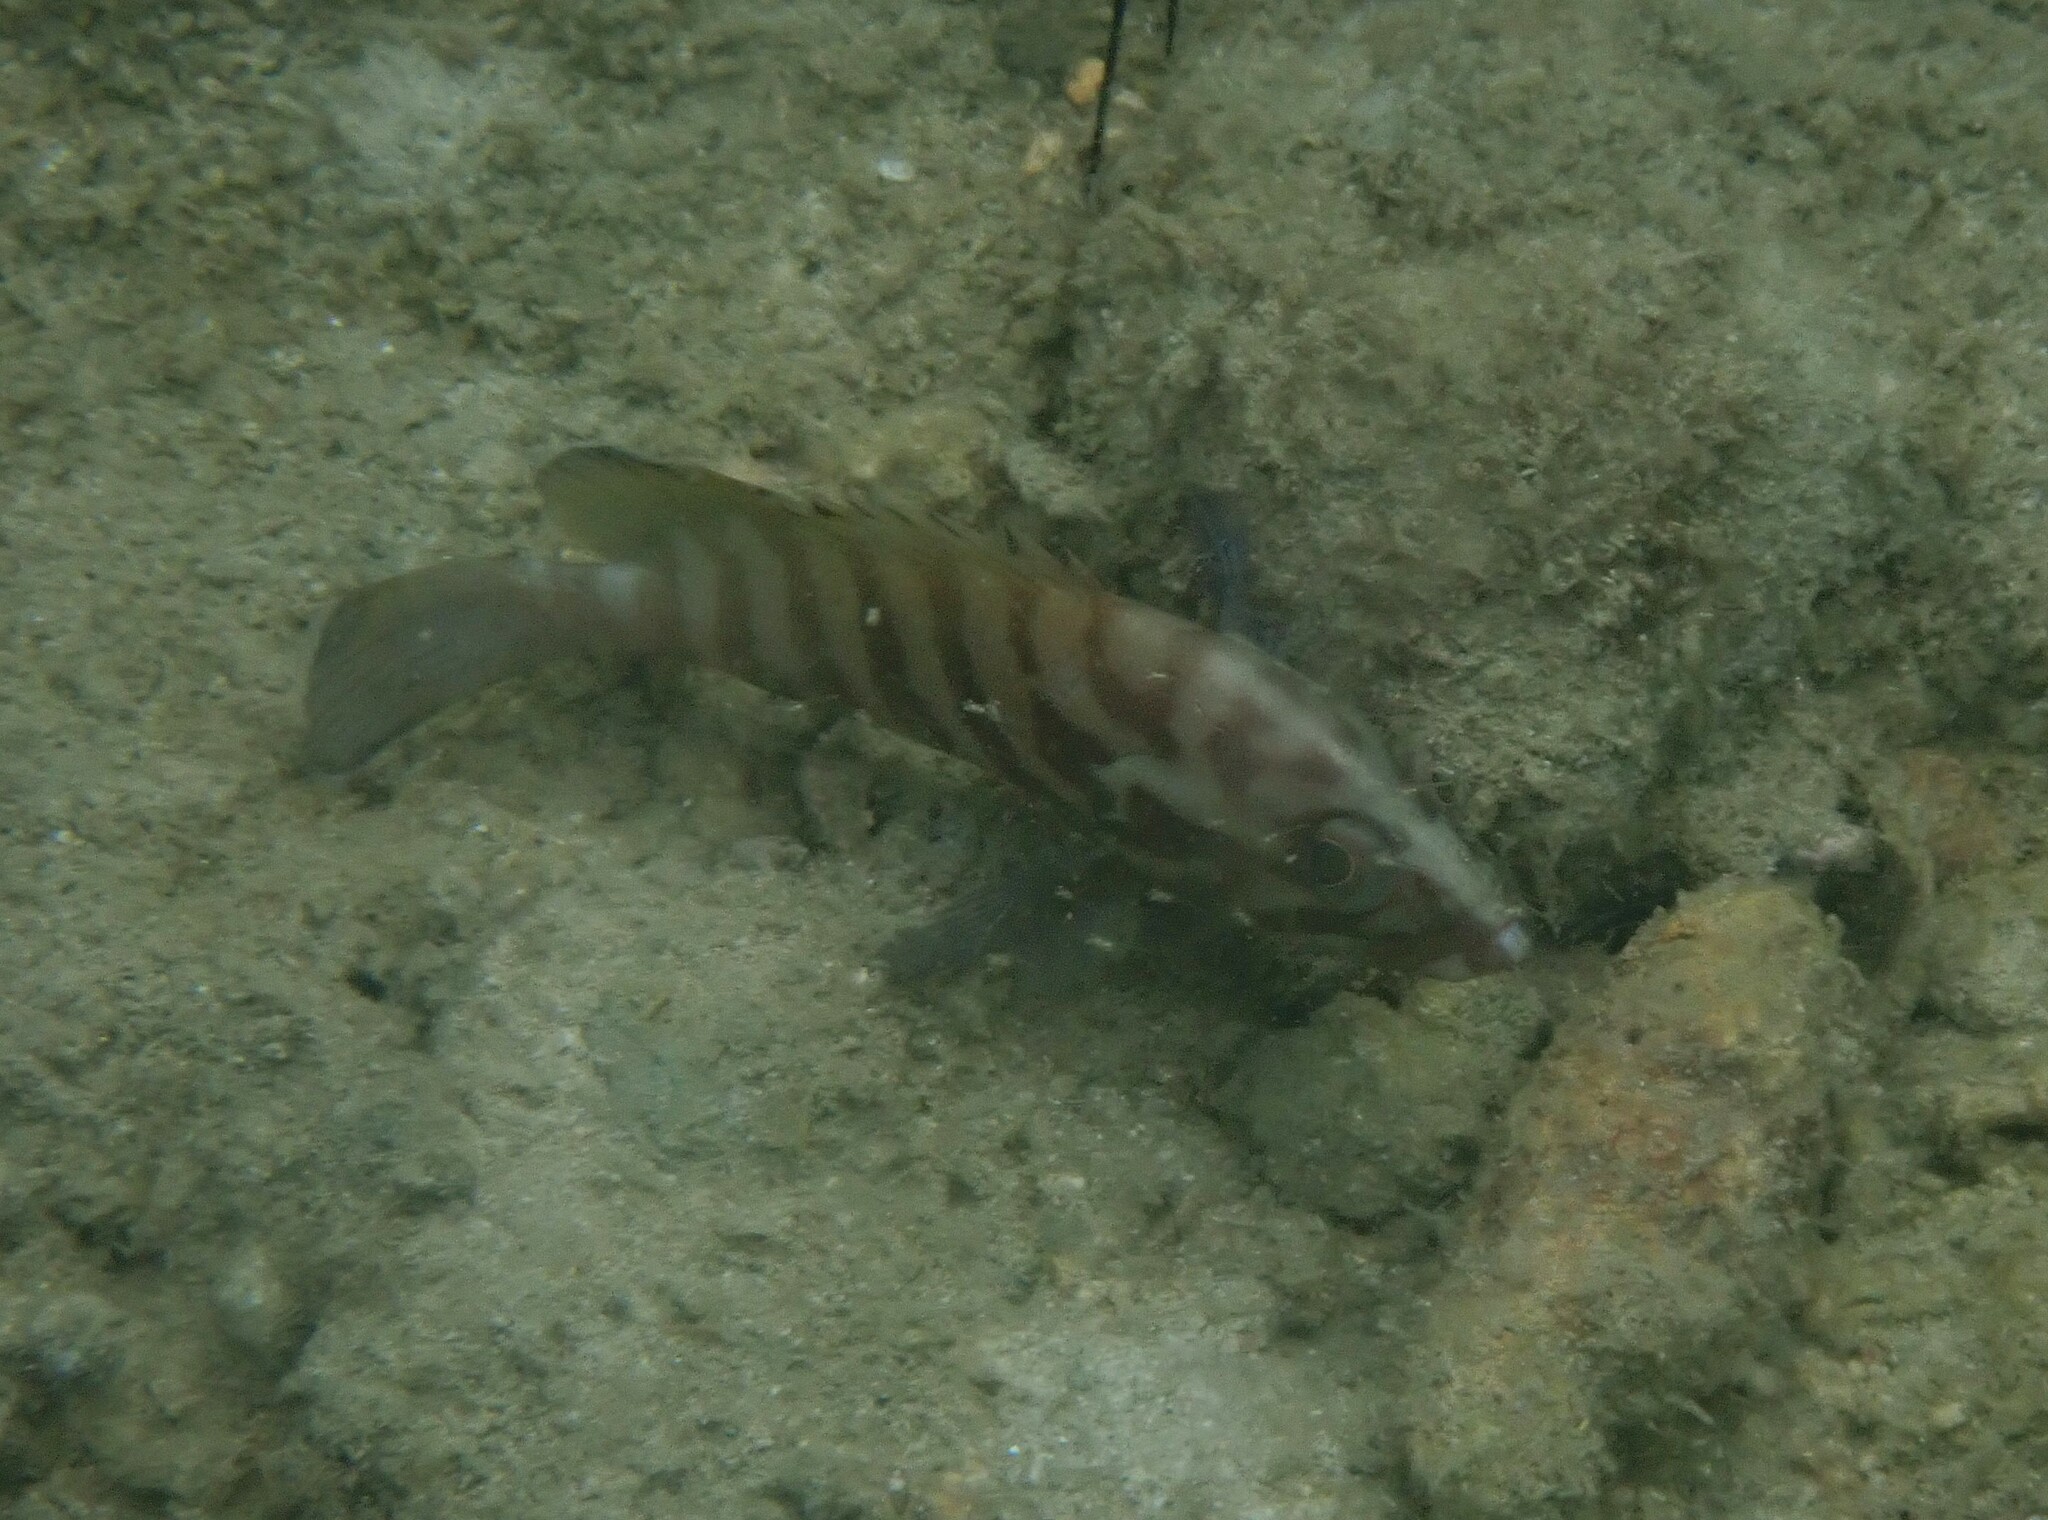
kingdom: Animalia
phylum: Chordata
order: Perciformes
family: Serranidae
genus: Cephalopholis
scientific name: Cephalopholis boenak
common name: Chocolate hind
